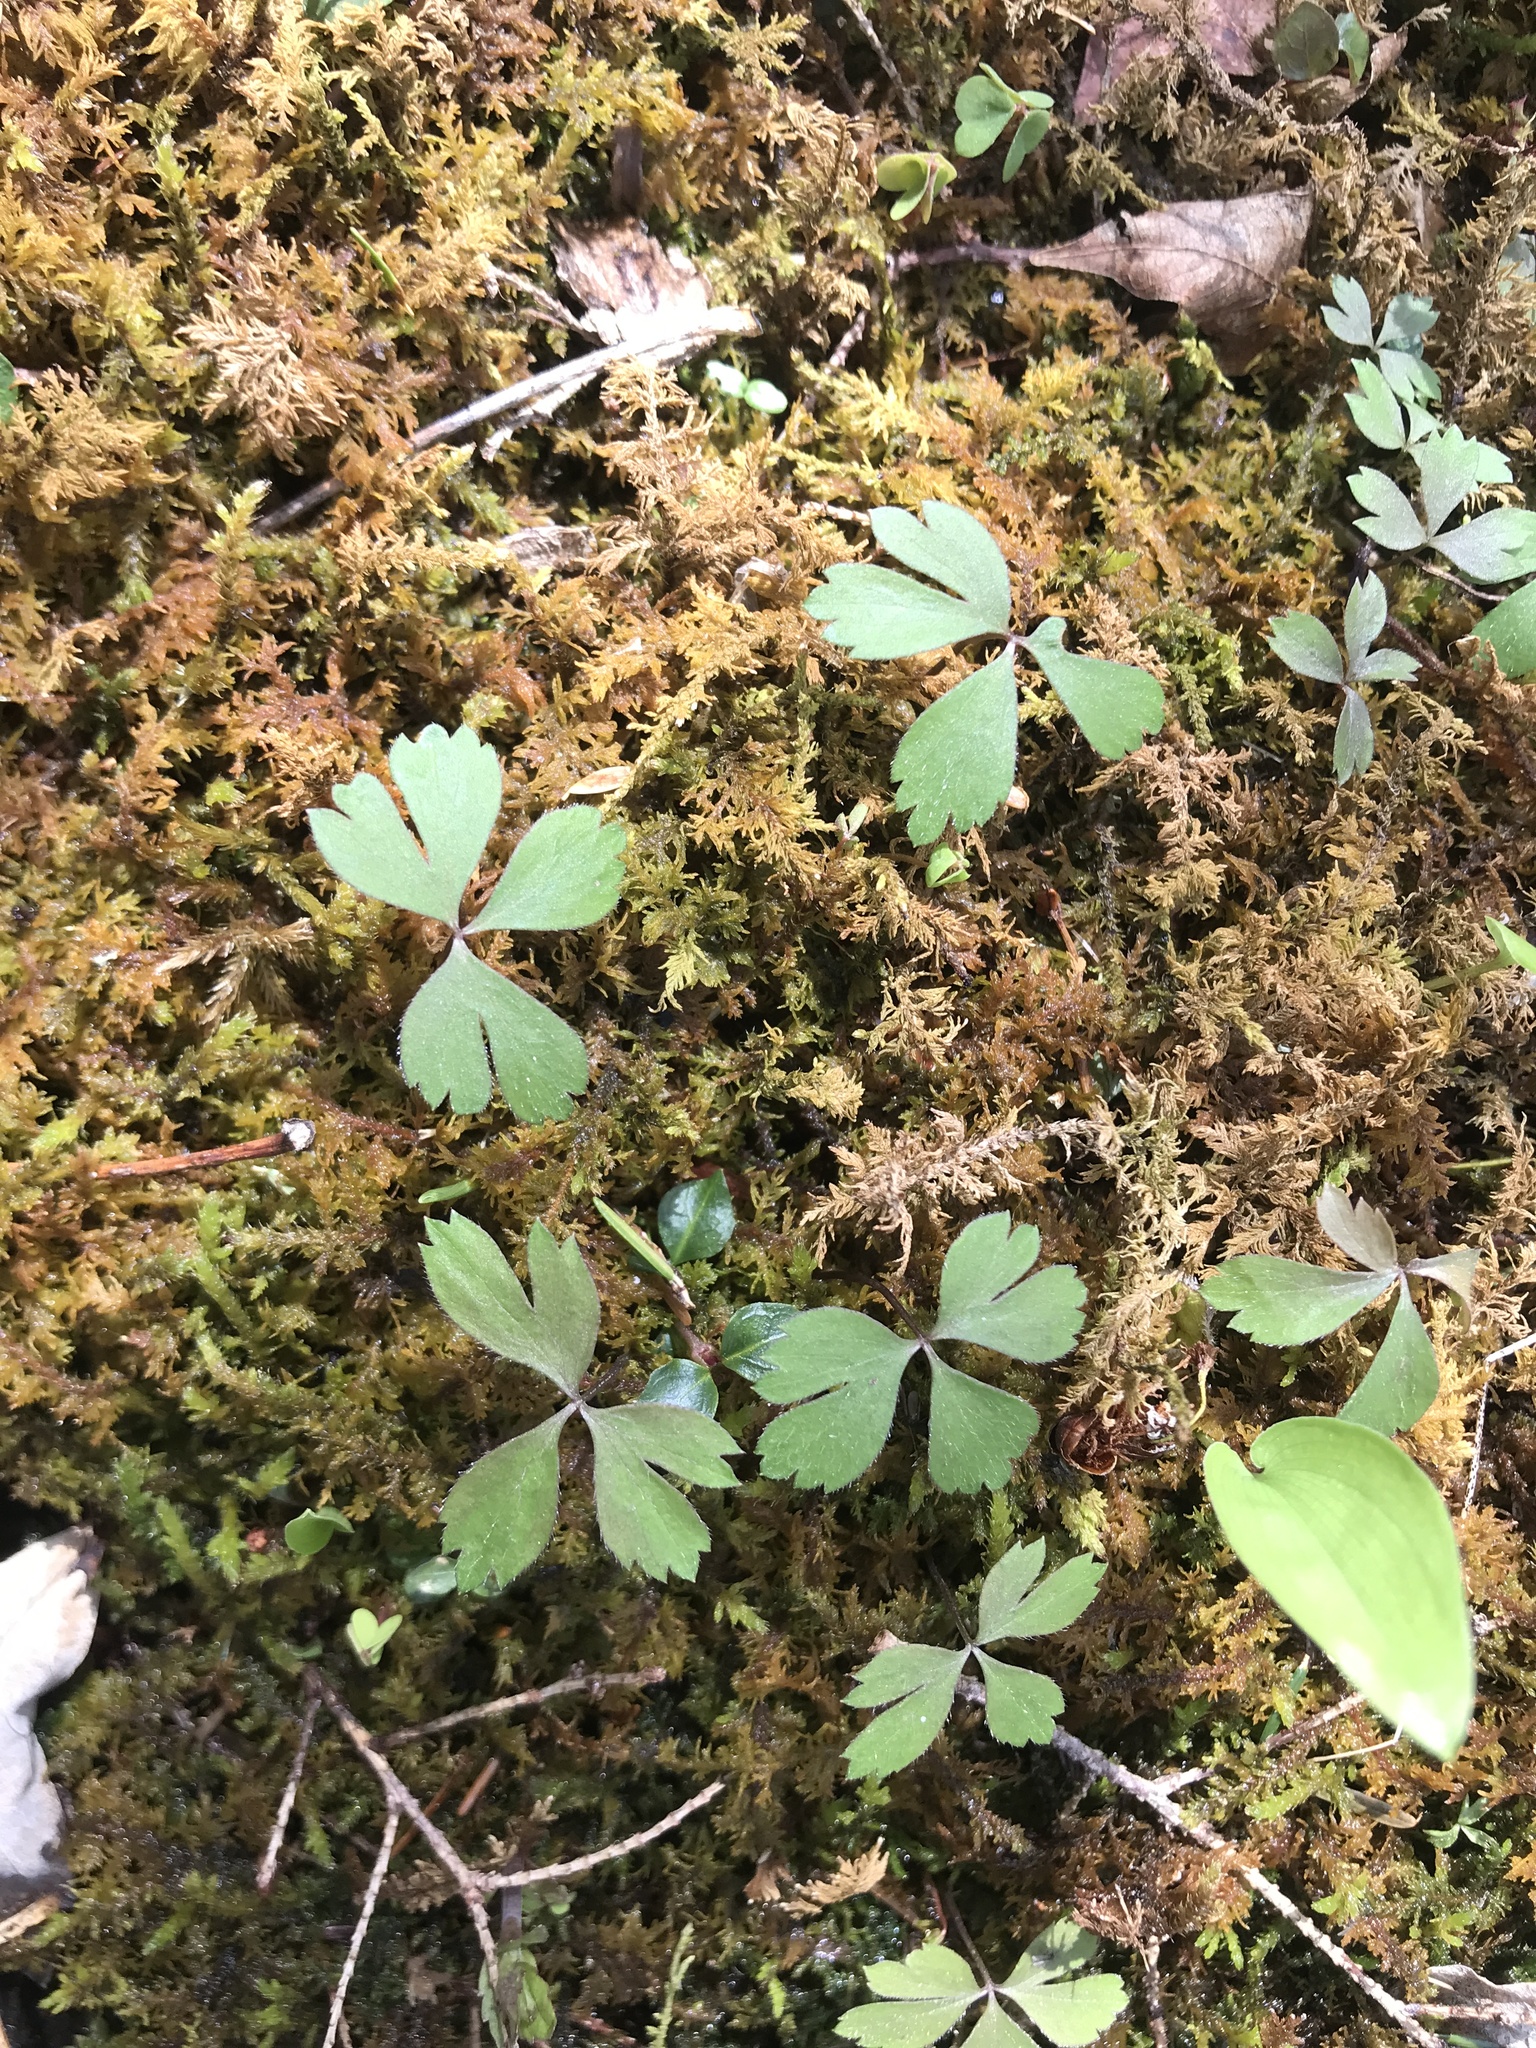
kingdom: Plantae
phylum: Tracheophyta
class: Magnoliopsida
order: Ranunculales
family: Ranunculaceae
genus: Thalictrum
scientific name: Thalictrum thalictroides
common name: Rue-anemone
